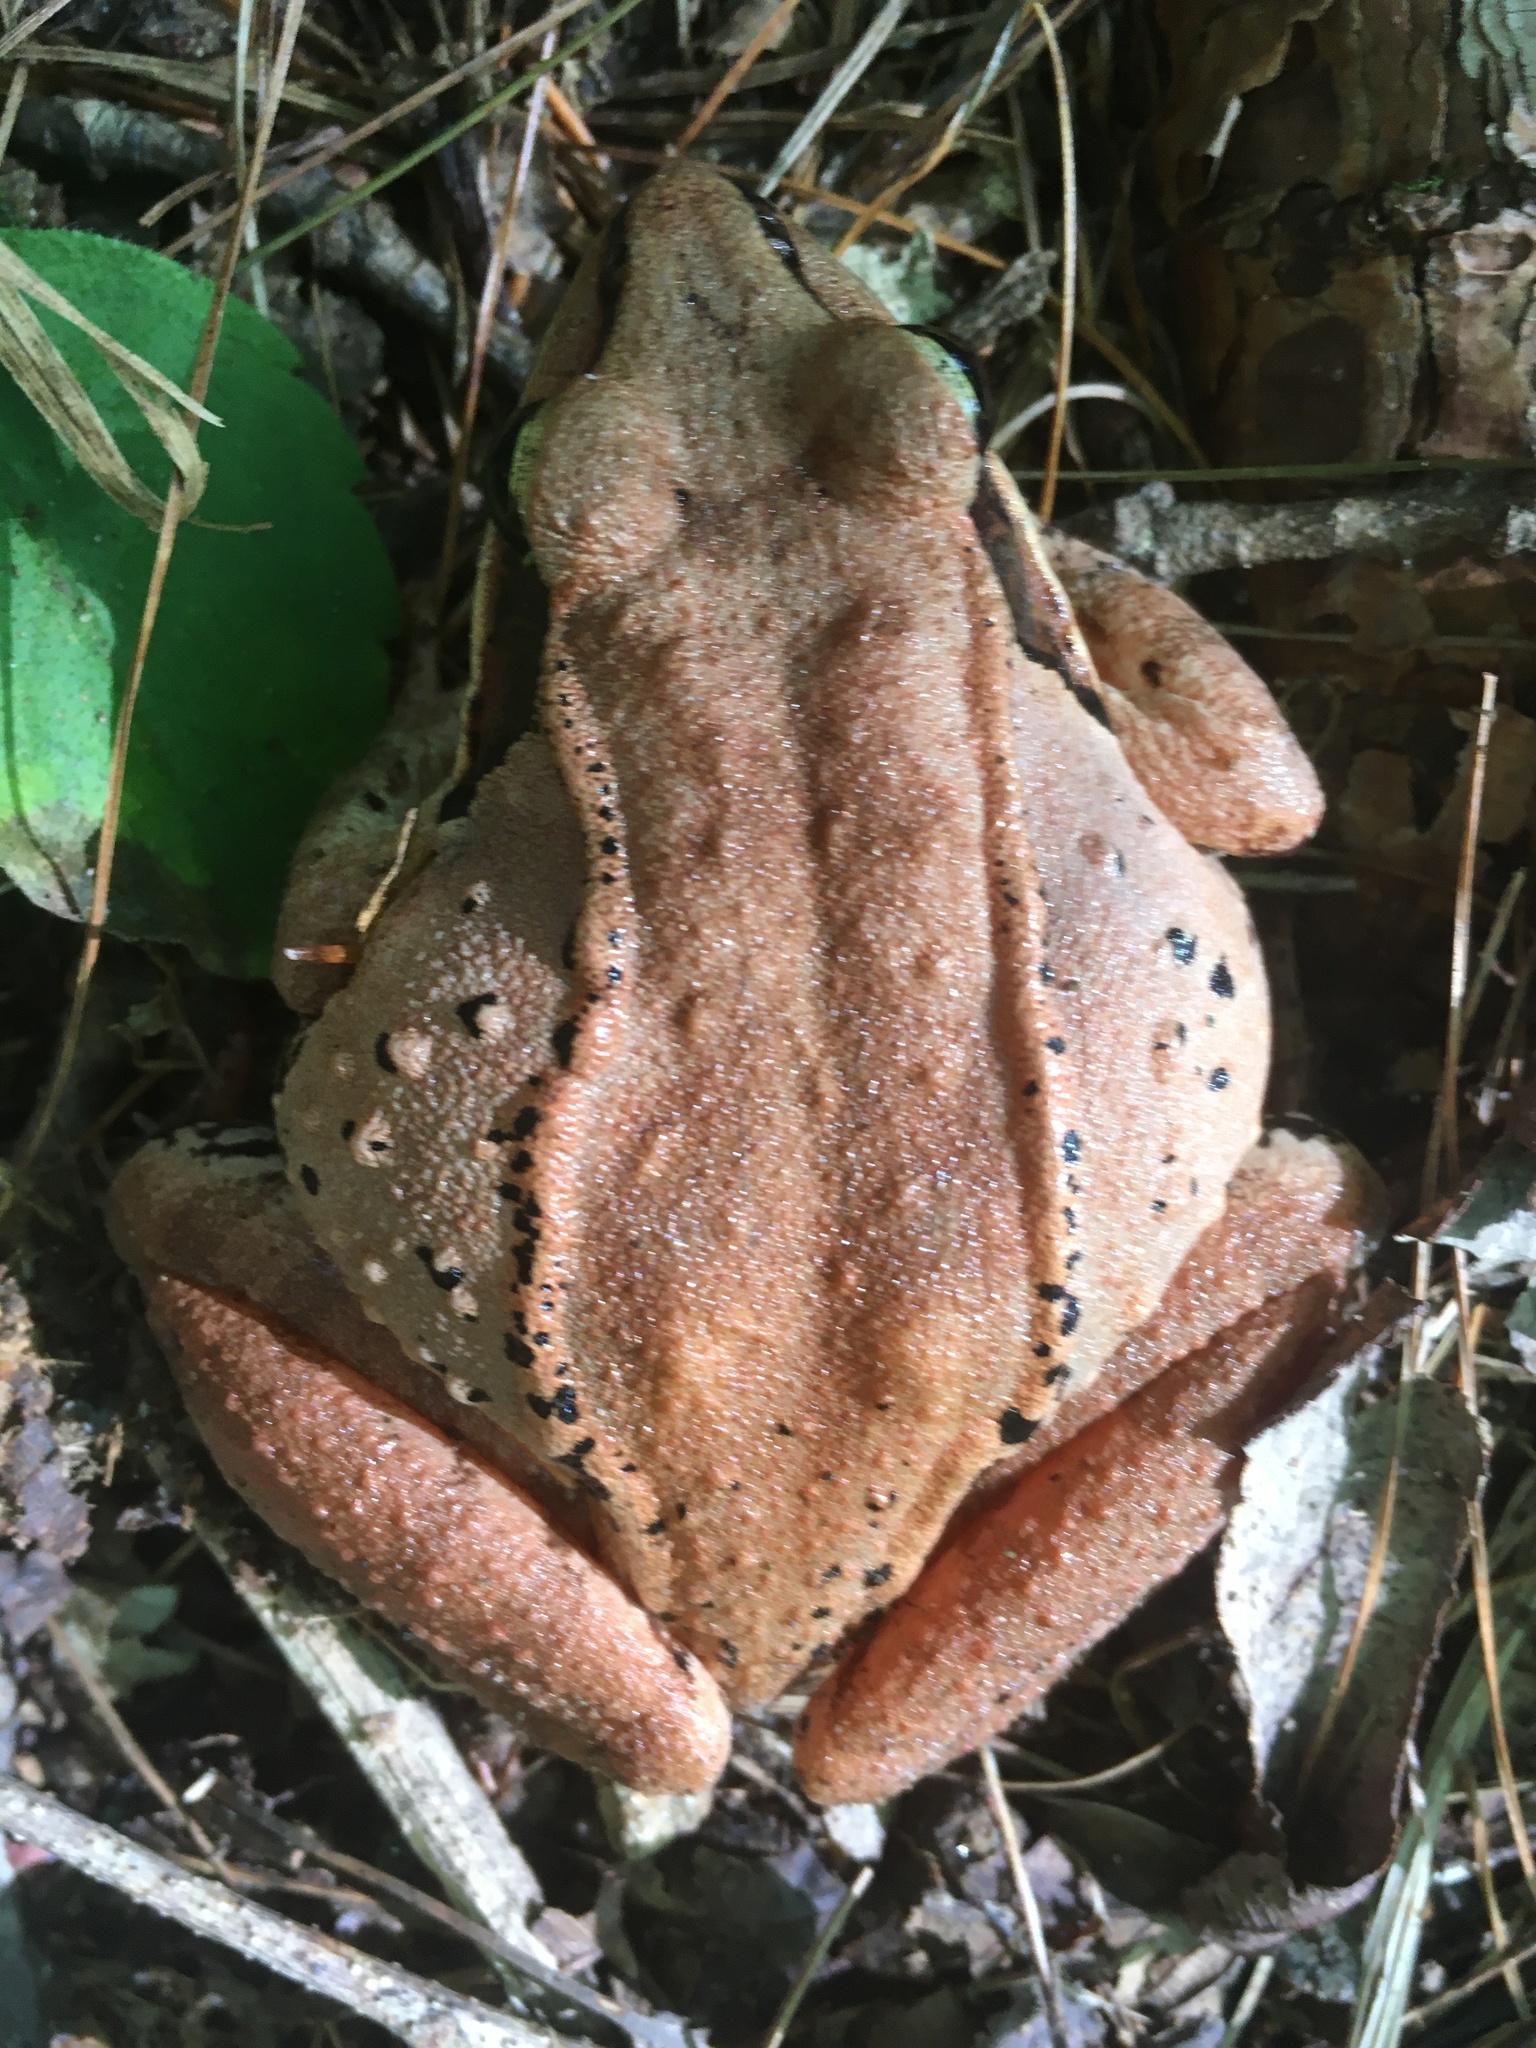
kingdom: Animalia
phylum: Chordata
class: Amphibia
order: Anura
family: Ranidae
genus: Lithobates
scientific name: Lithobates sylvaticus
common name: Wood frog
